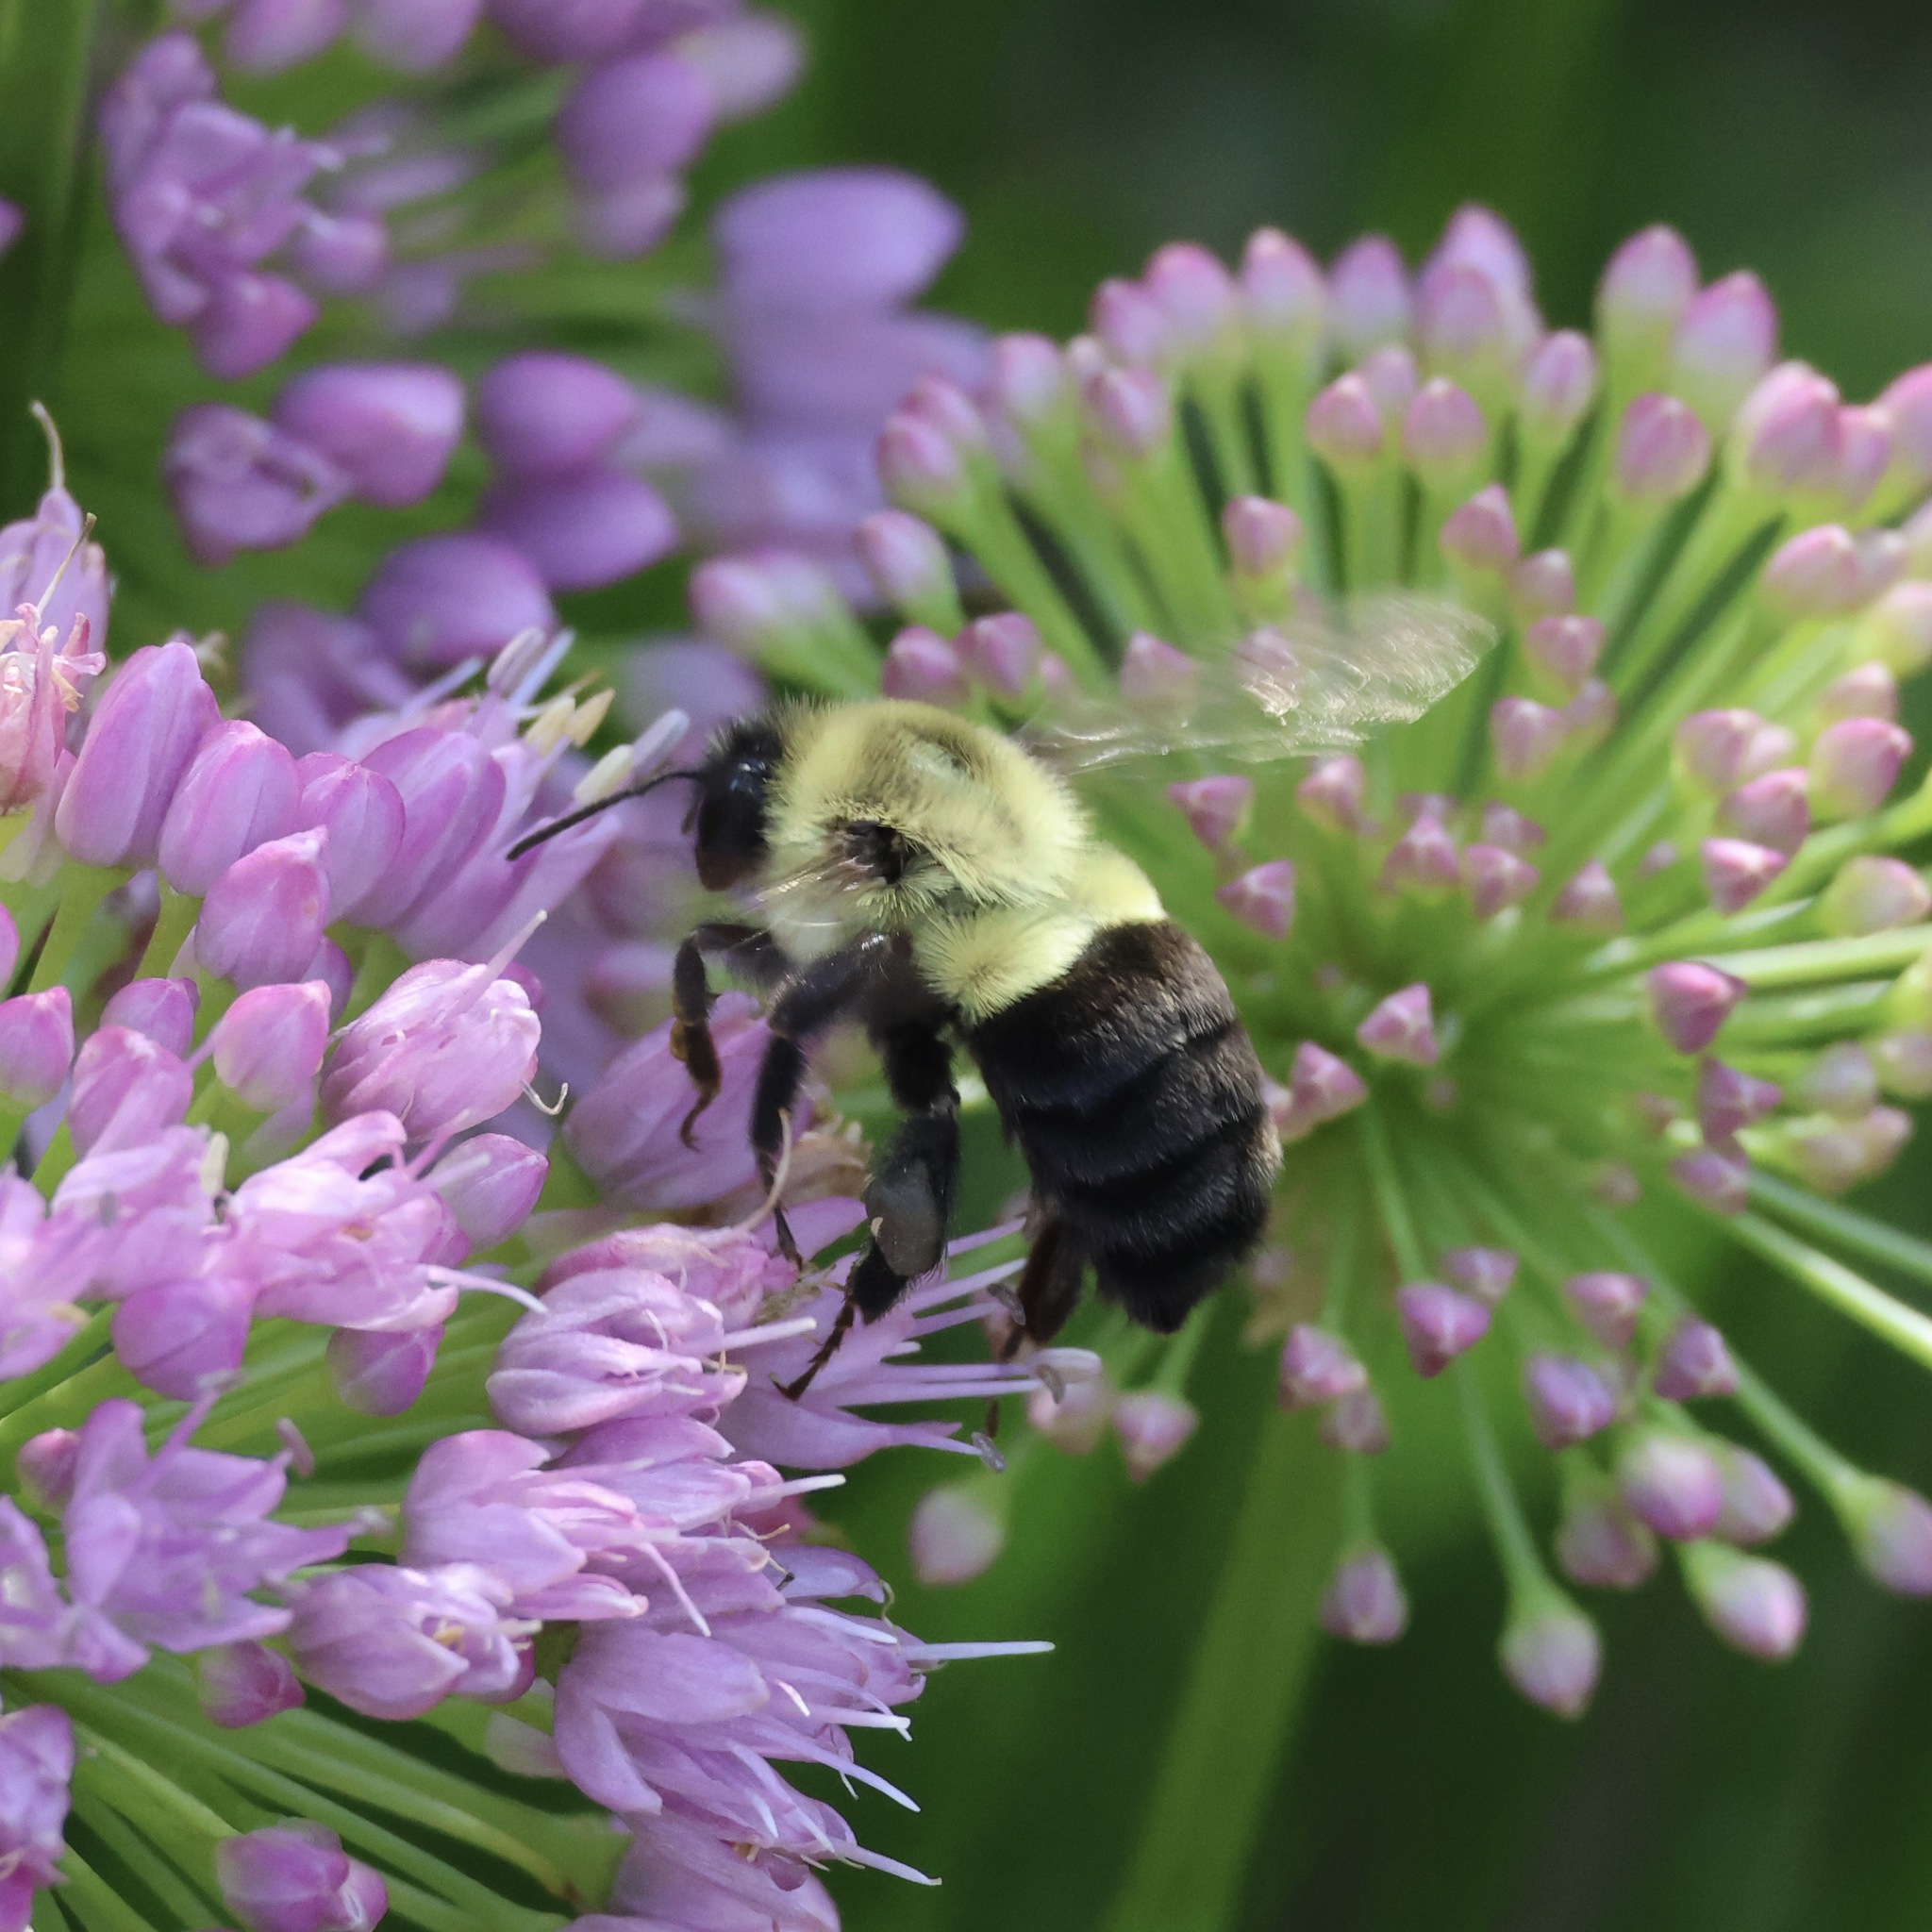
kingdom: Animalia
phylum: Arthropoda
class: Insecta
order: Hymenoptera
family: Apidae
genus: Bombus
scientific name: Bombus impatiens
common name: Common eastern bumble bee
